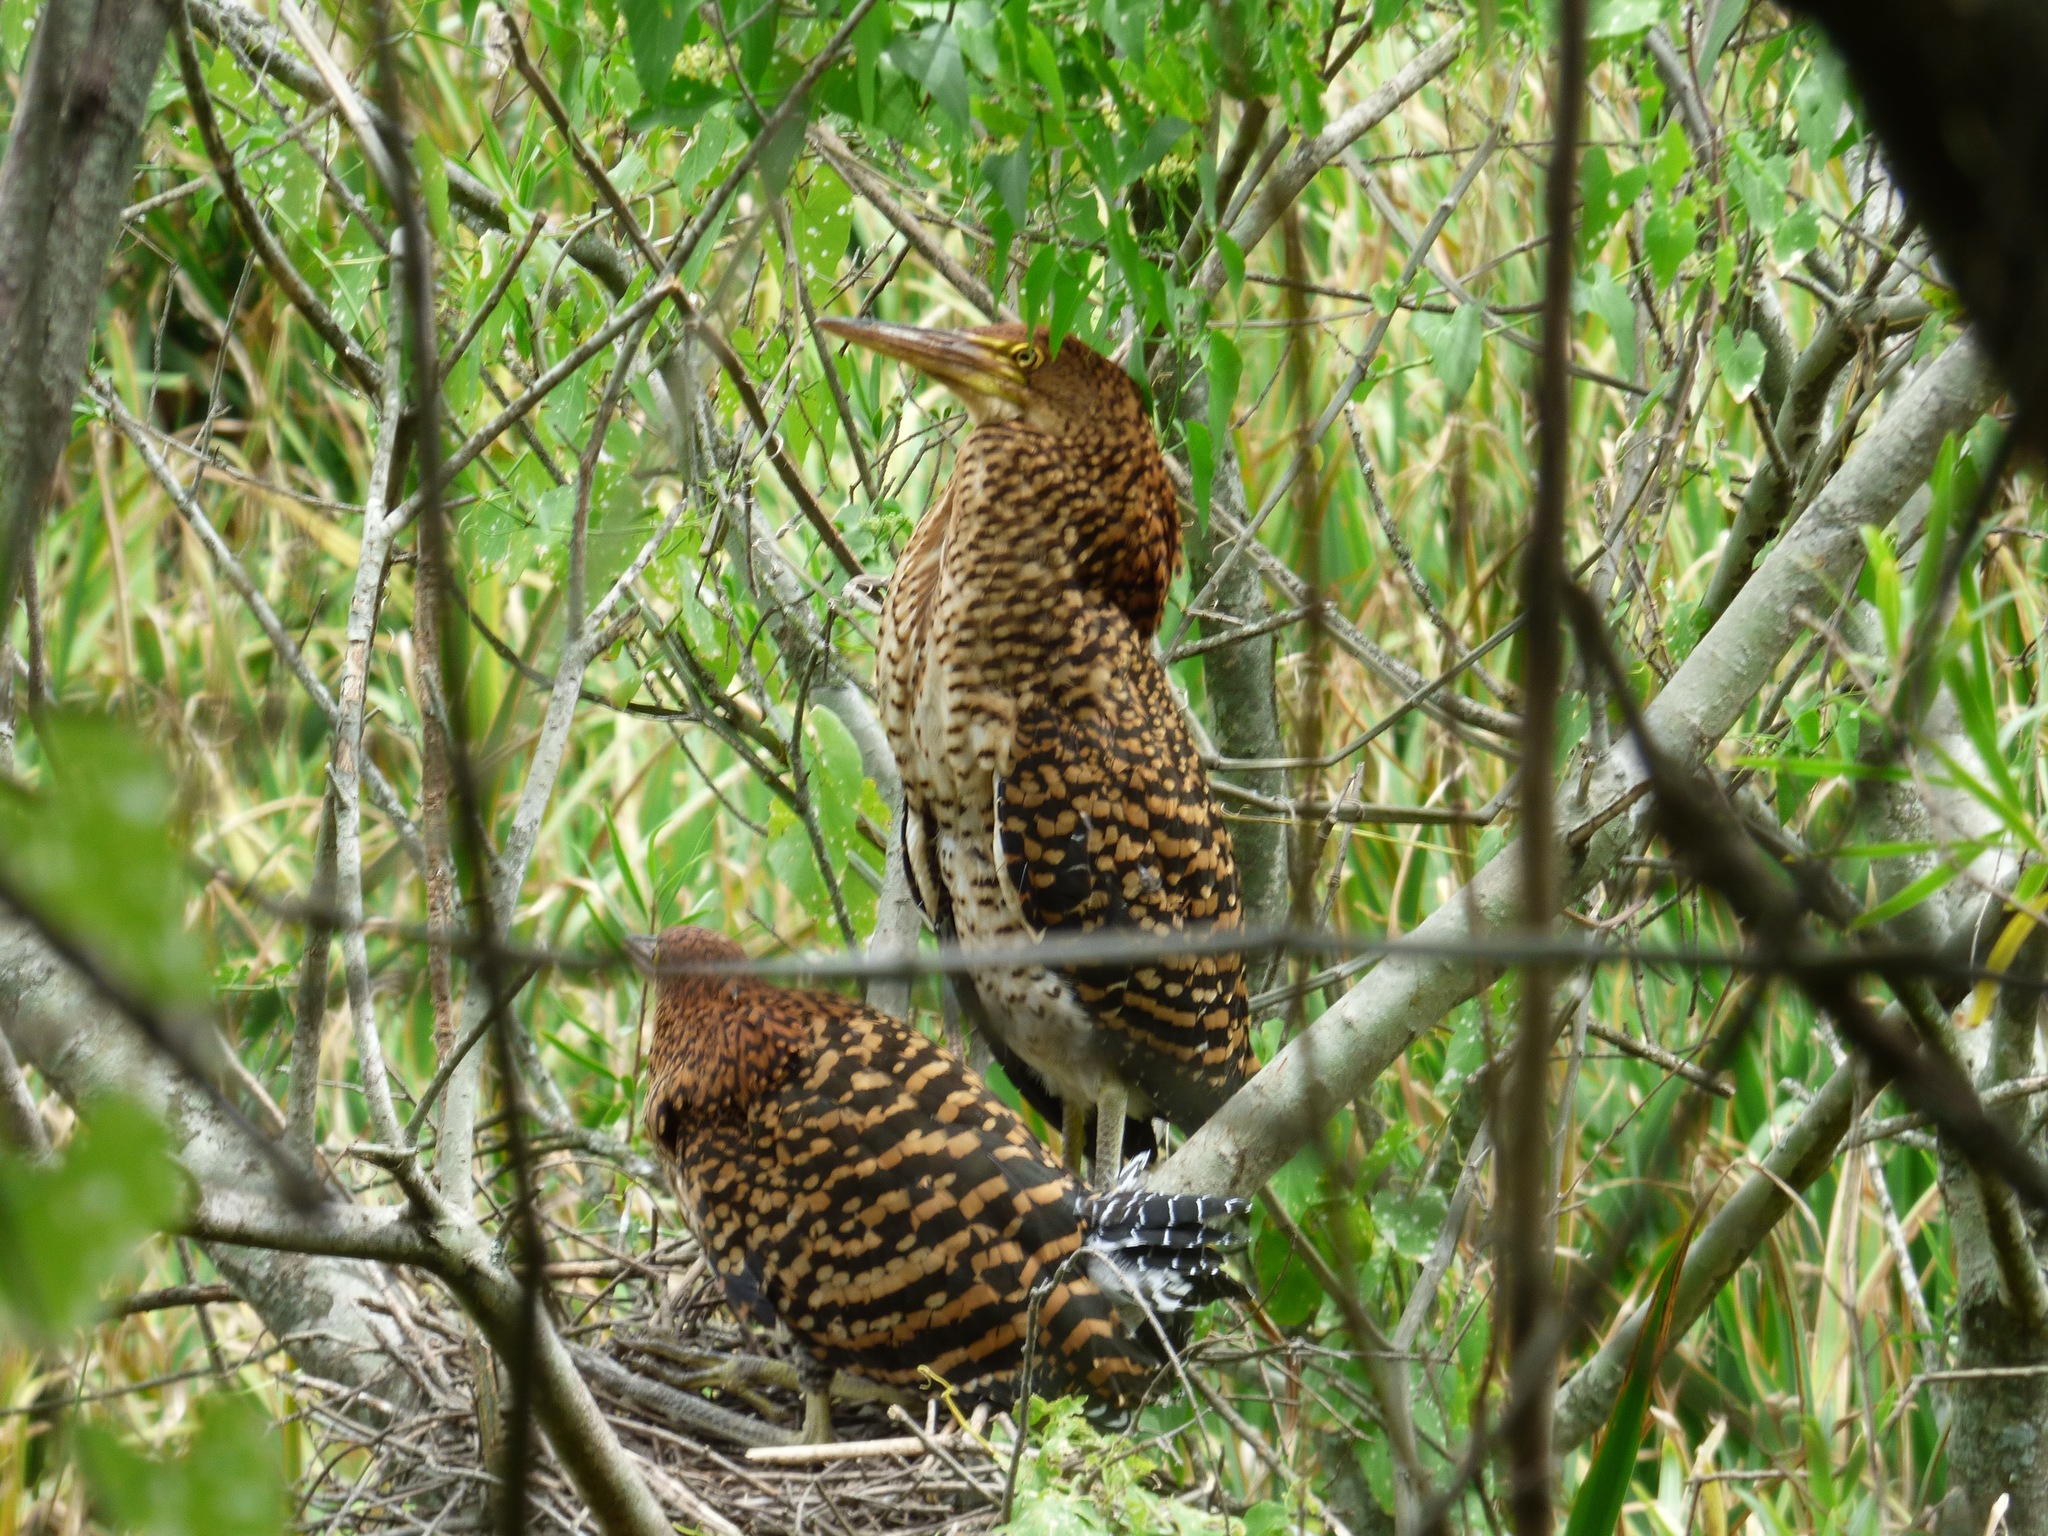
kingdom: Animalia
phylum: Chordata
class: Aves
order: Pelecaniformes
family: Ardeidae
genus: Tigrisoma
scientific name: Tigrisoma lineatum
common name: Rufescent tiger-heron
